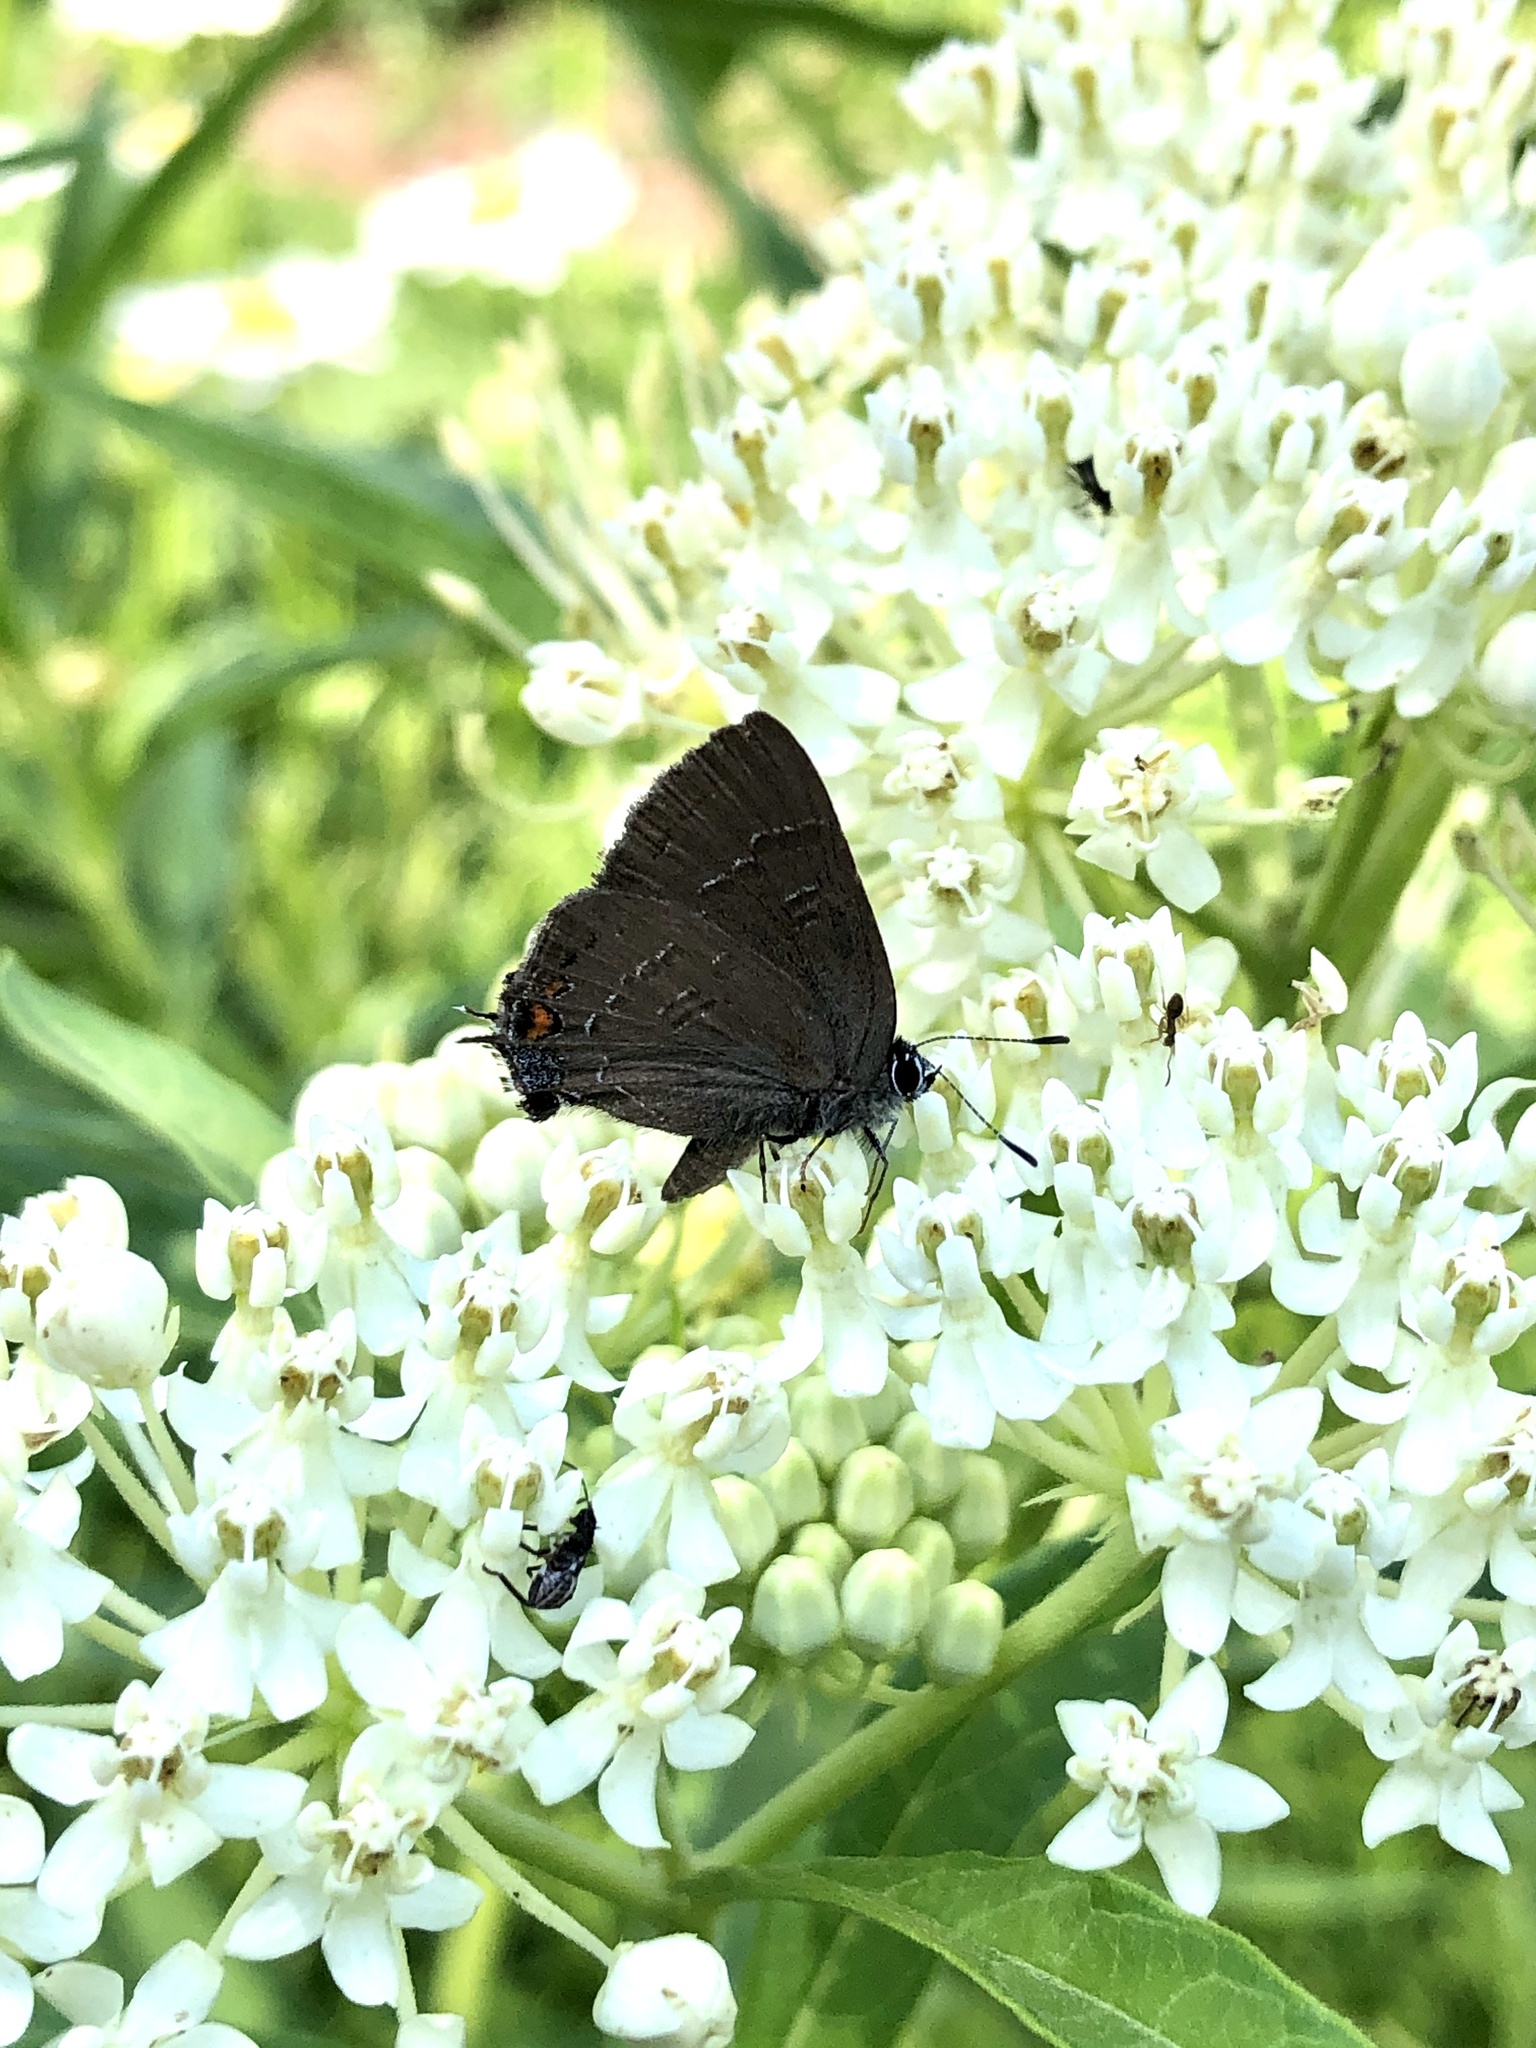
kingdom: Animalia
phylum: Arthropoda
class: Insecta
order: Lepidoptera
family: Lycaenidae
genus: Satyrium
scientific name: Satyrium calanus
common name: Banded hairstreak
